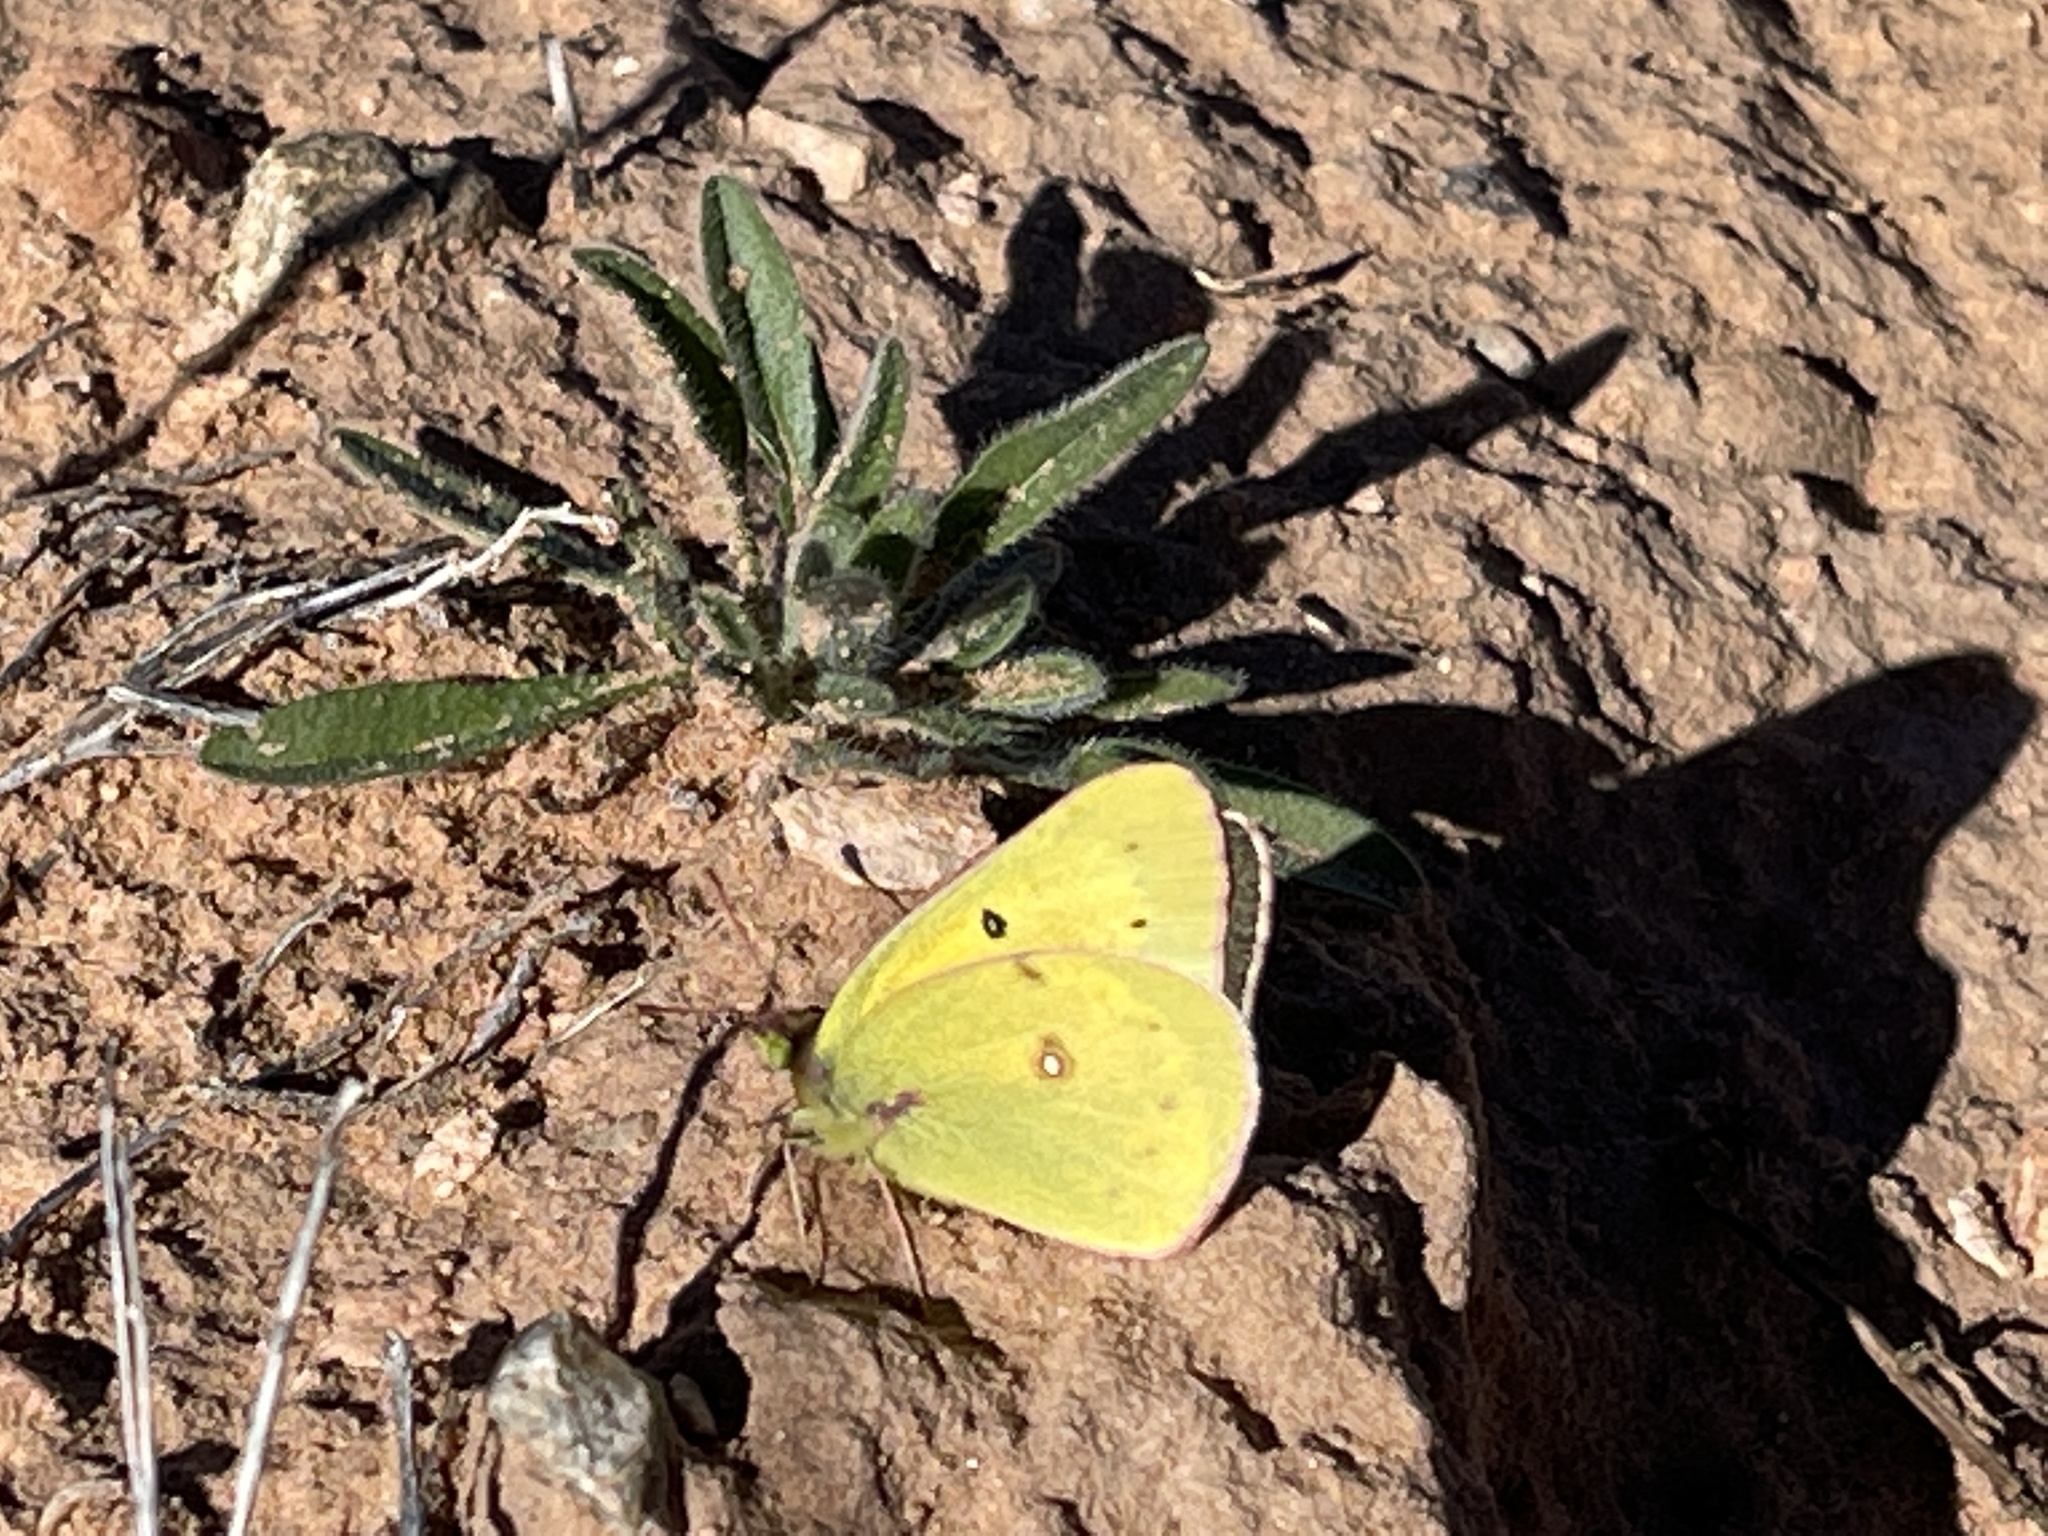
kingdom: Animalia
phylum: Arthropoda
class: Insecta
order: Lepidoptera
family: Pieridae
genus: Colias
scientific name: Colias eurytheme
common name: Alfalfa butterfly
